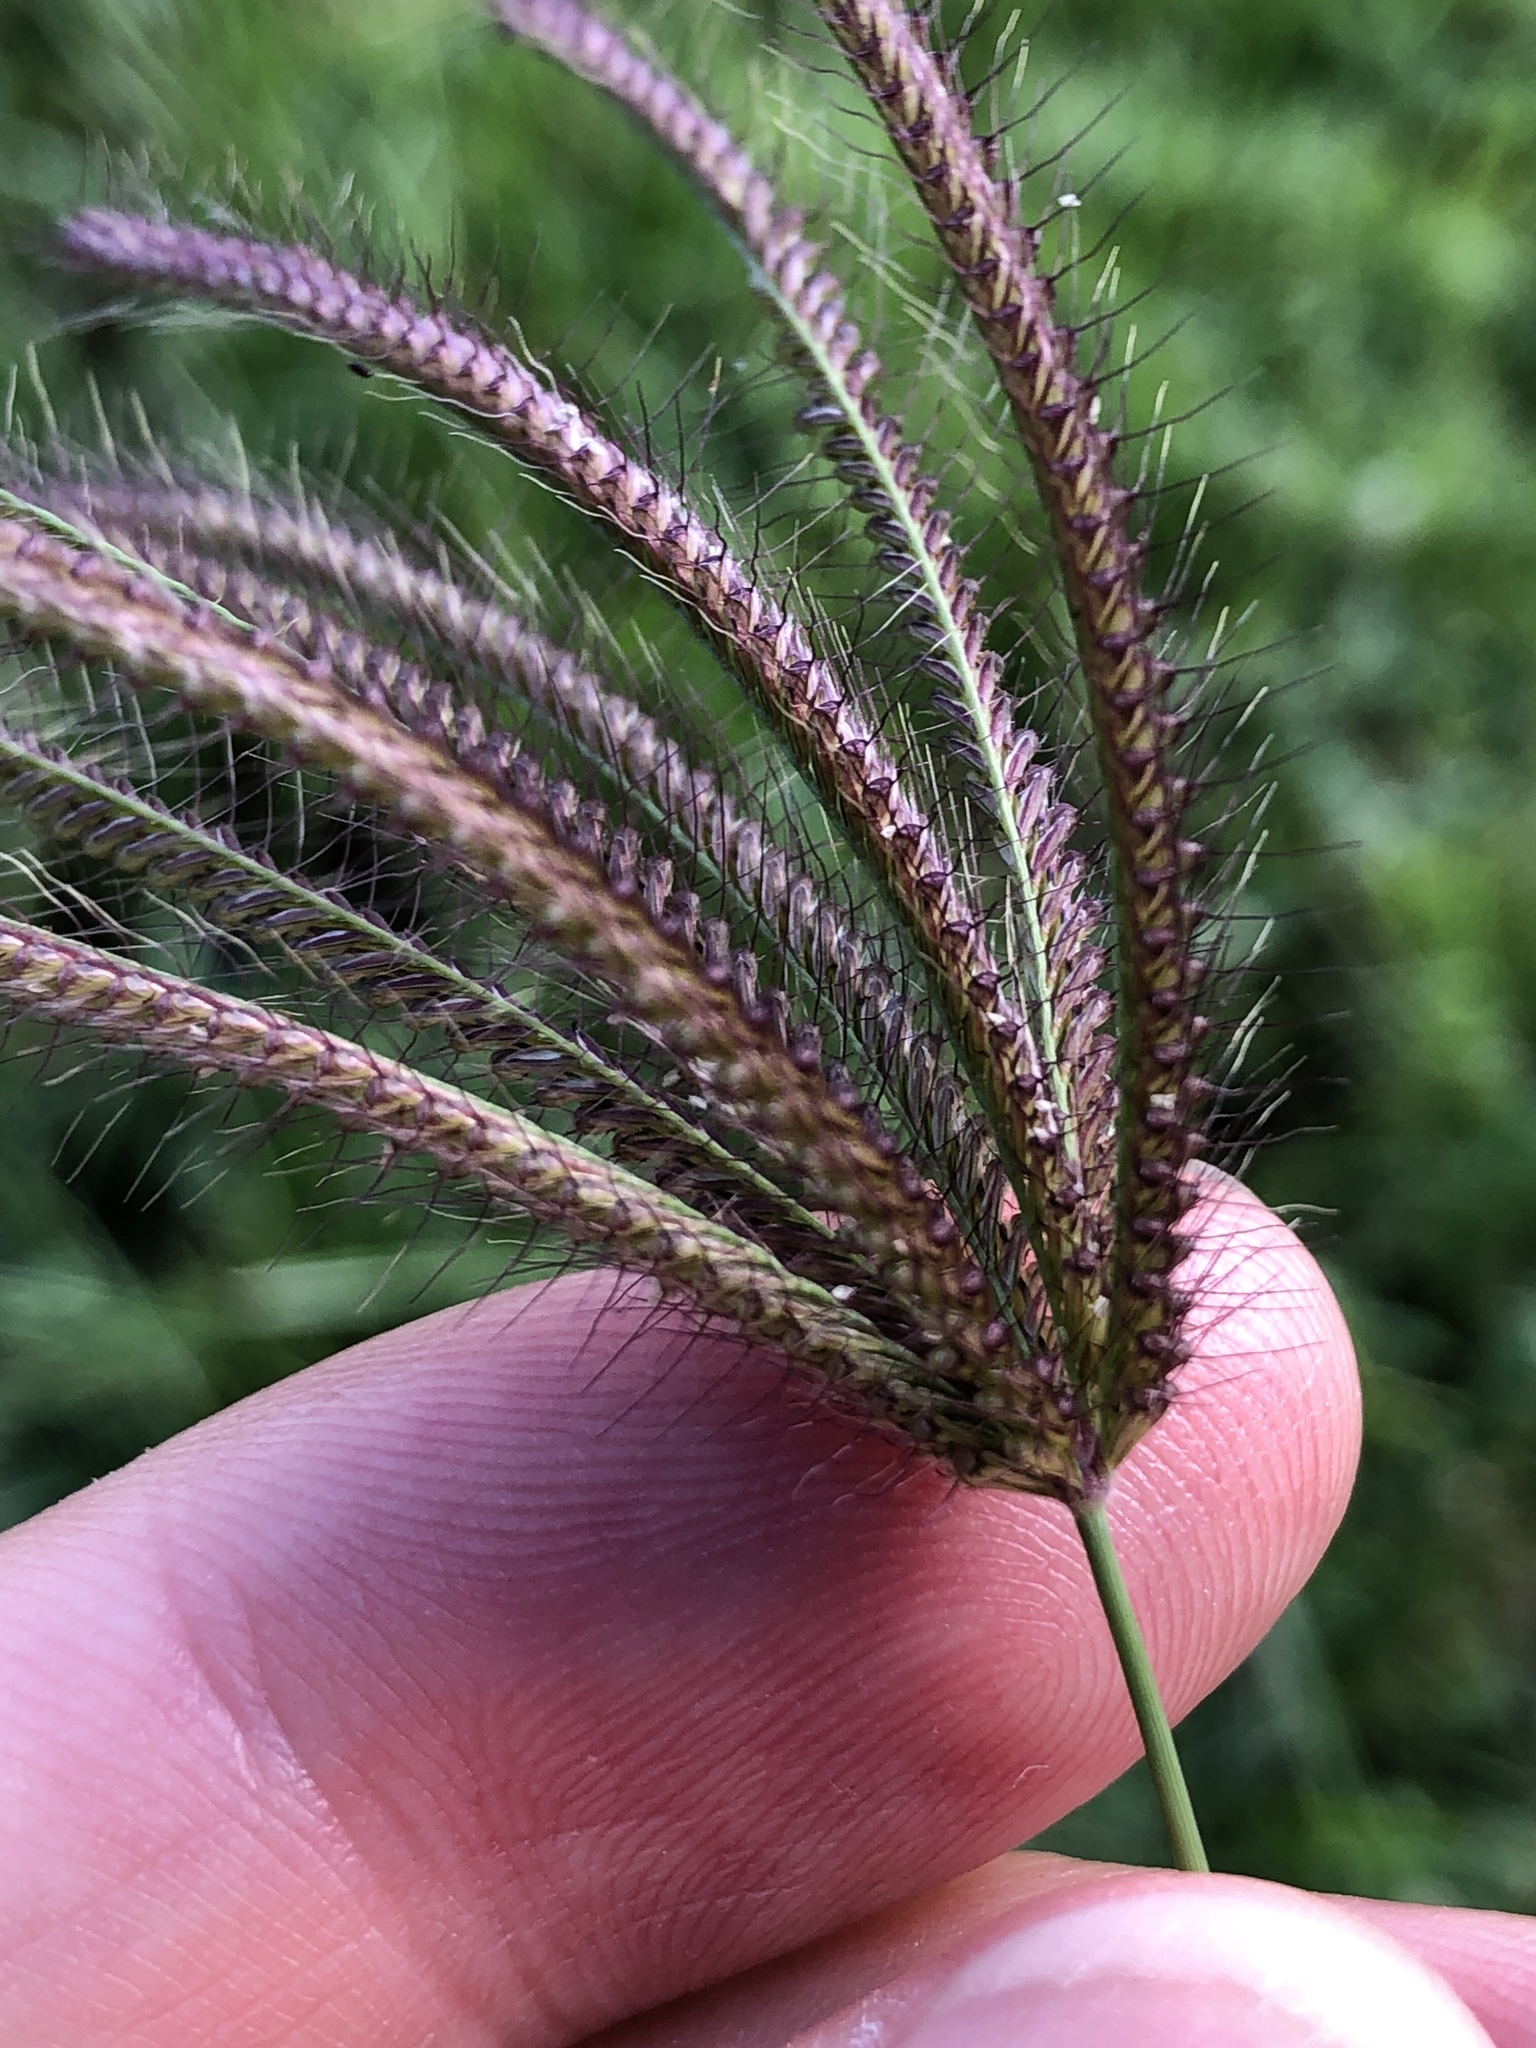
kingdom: Plantae
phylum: Tracheophyta
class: Liliopsida
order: Poales
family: Poaceae
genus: Chloris
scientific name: Chloris barbata
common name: Swollen fingergrass
